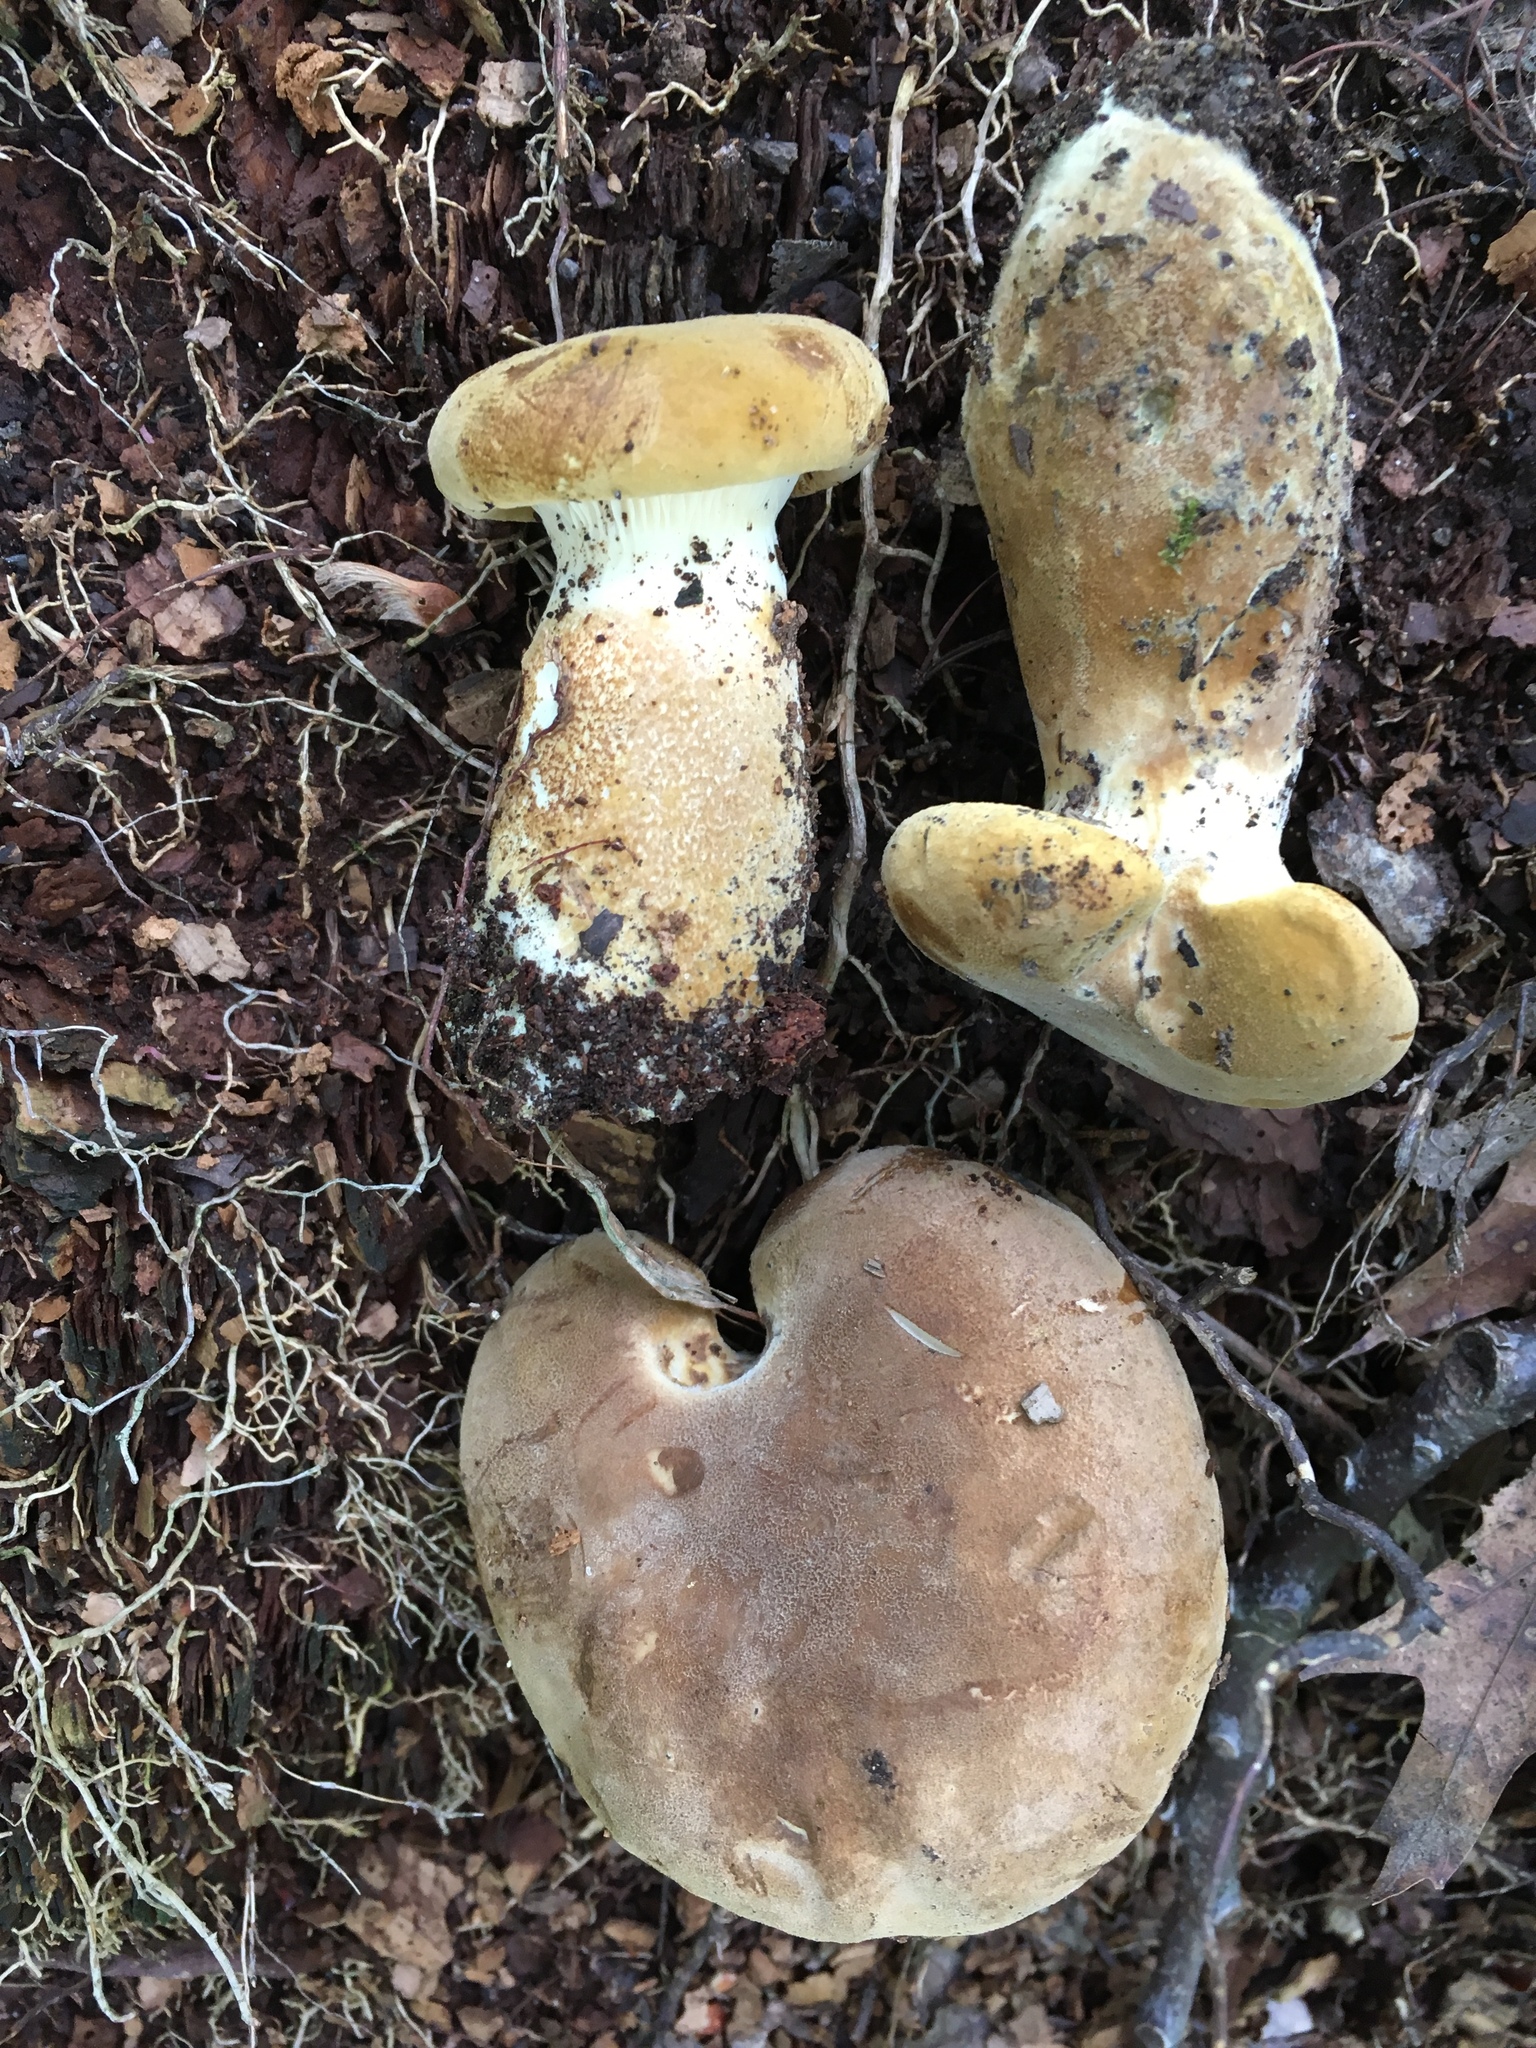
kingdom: Fungi
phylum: Basidiomycota
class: Agaricomycetes
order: Boletales
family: Tapinellaceae
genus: Tapinella
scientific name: Tapinella atrotomentosa
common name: Velvet rollrim
